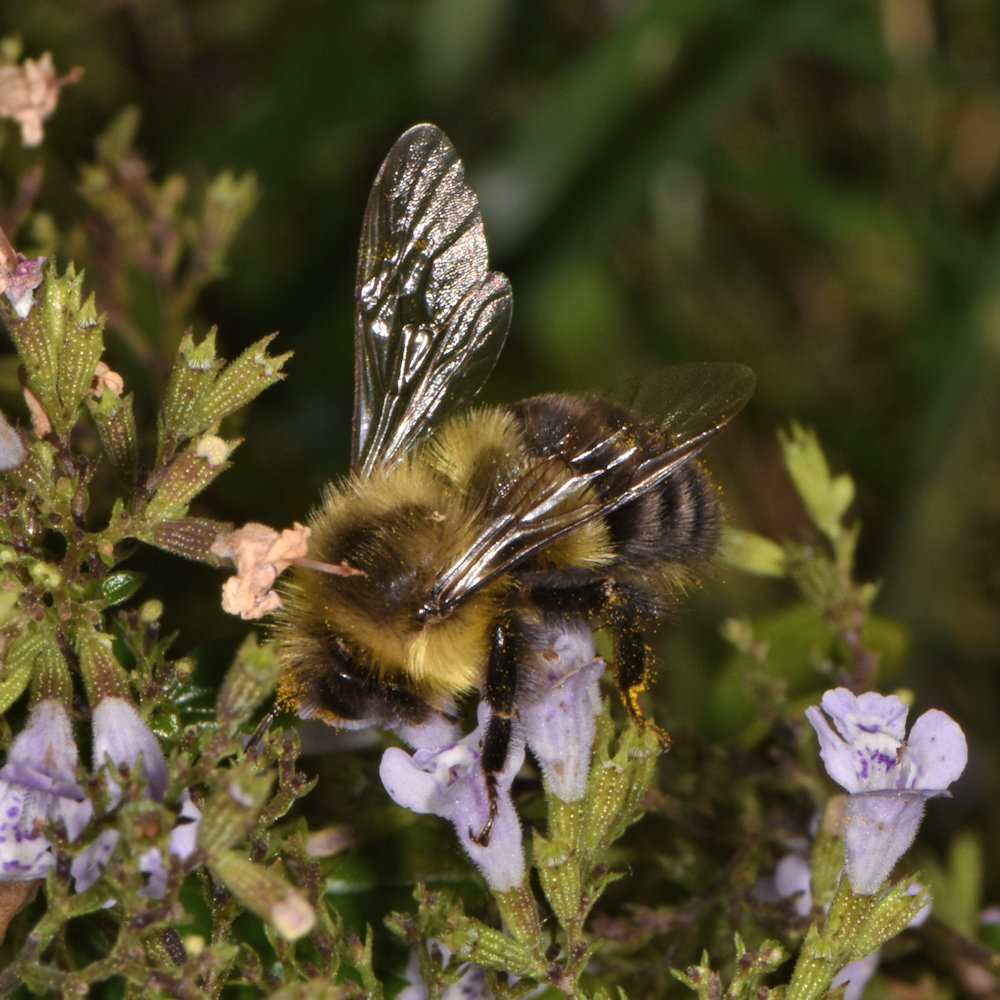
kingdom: Animalia
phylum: Arthropoda
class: Insecta
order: Hymenoptera
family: Apidae
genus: Bombus
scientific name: Bombus impatiens
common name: Common eastern bumble bee
